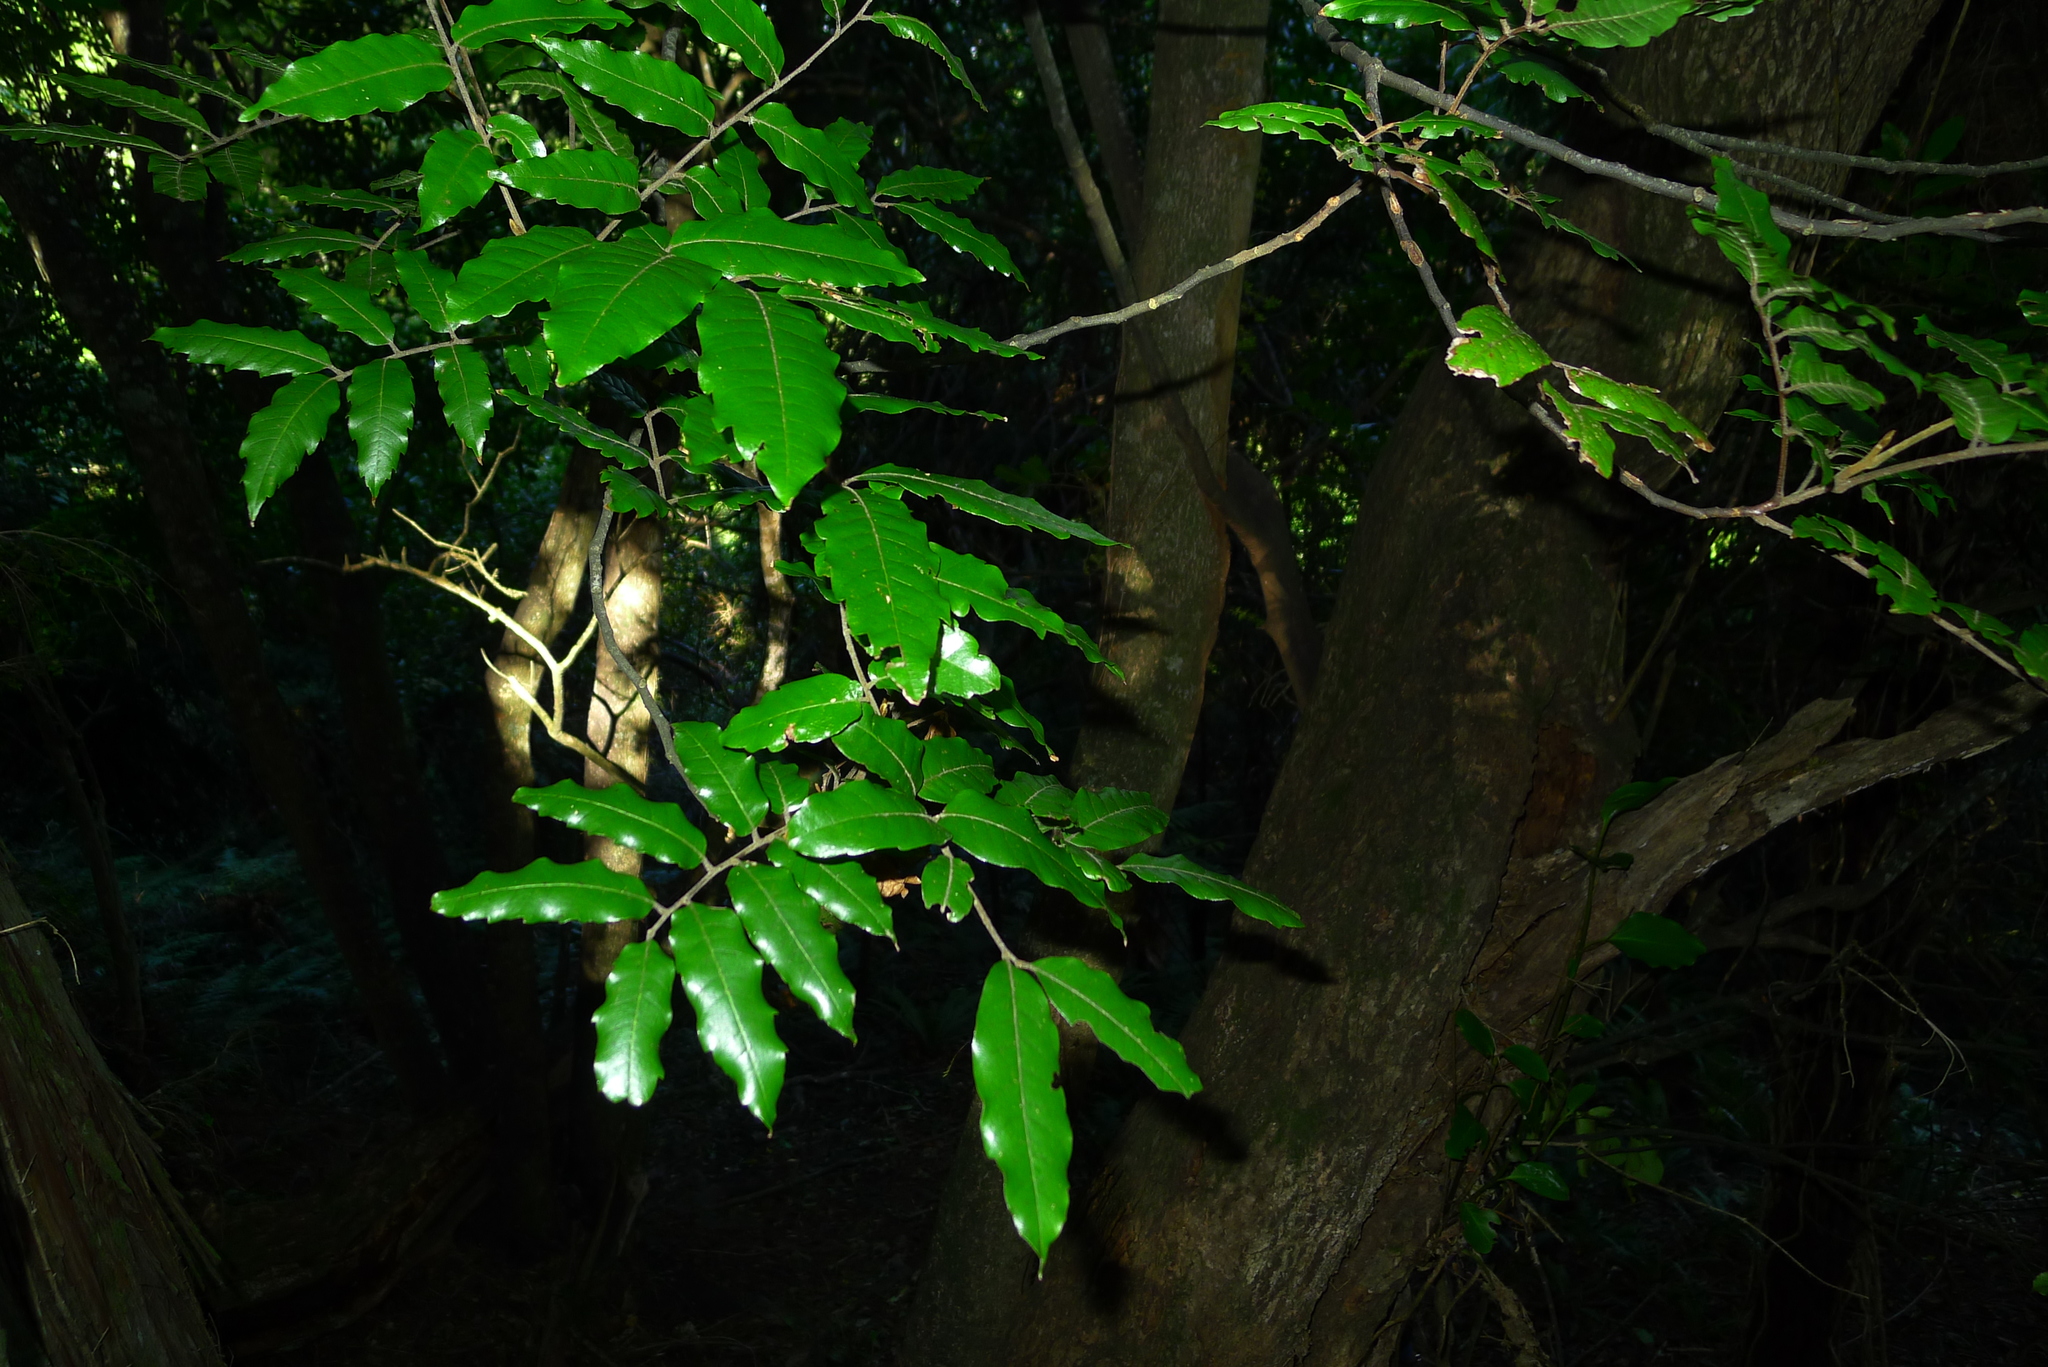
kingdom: Plantae
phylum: Tracheophyta
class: Magnoliopsida
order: Sapindales
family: Sapindaceae
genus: Alectryon
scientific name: Alectryon excelsus
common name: Three kings titoki
